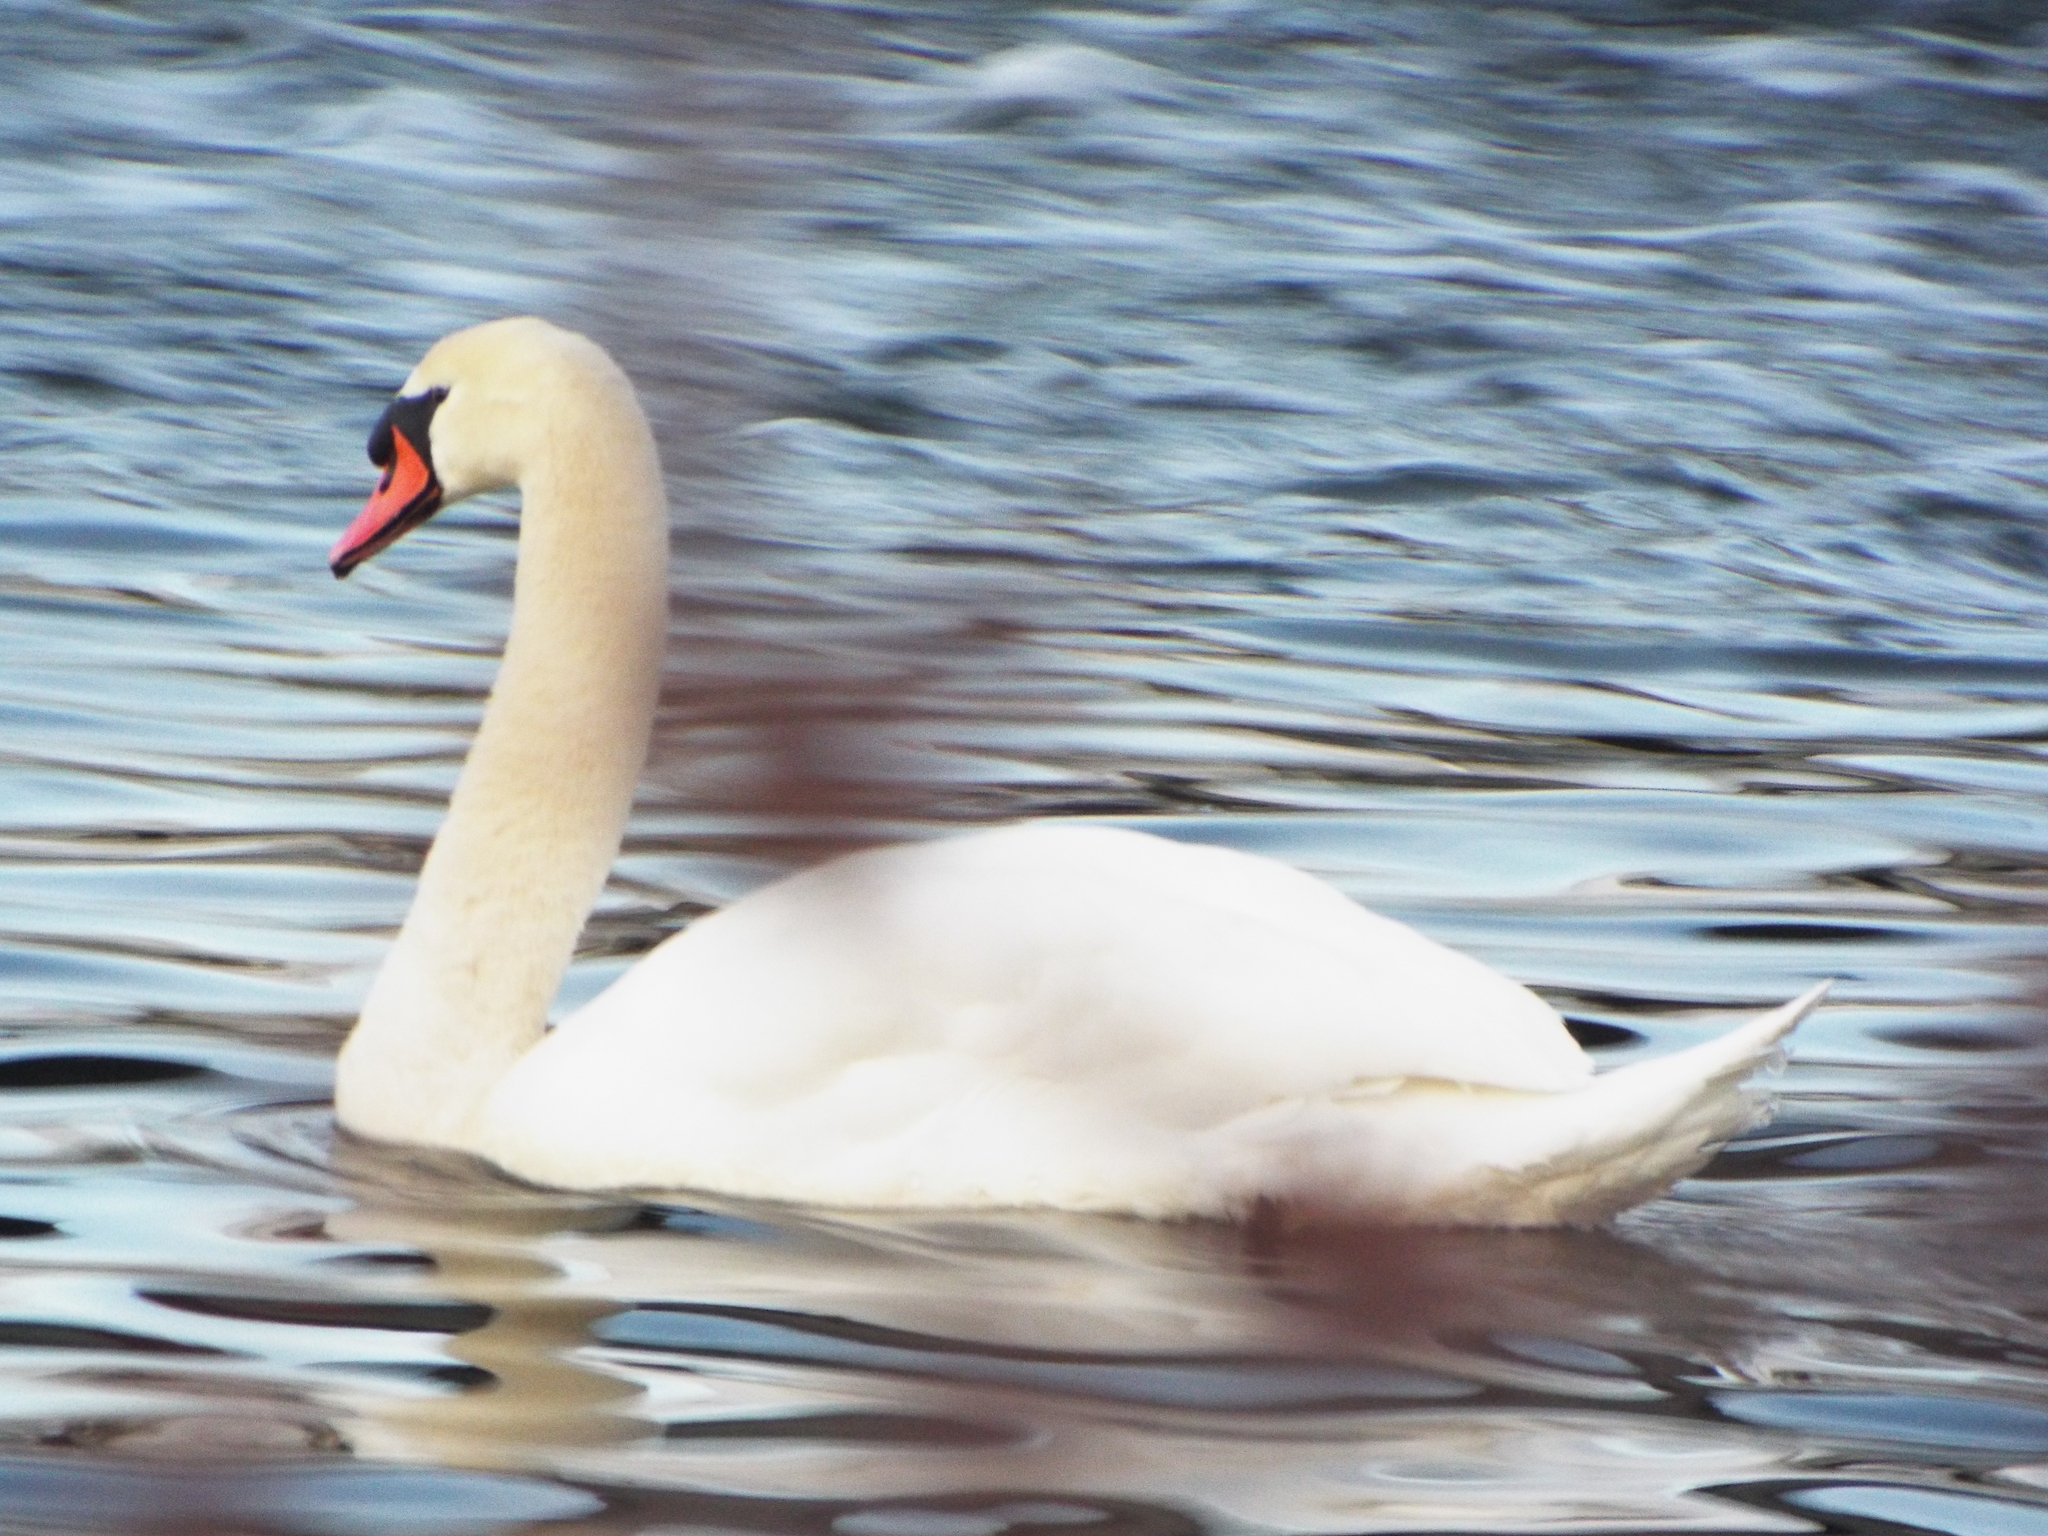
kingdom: Animalia
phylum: Chordata
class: Aves
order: Anseriformes
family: Anatidae
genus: Cygnus
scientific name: Cygnus olor
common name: Mute swan
